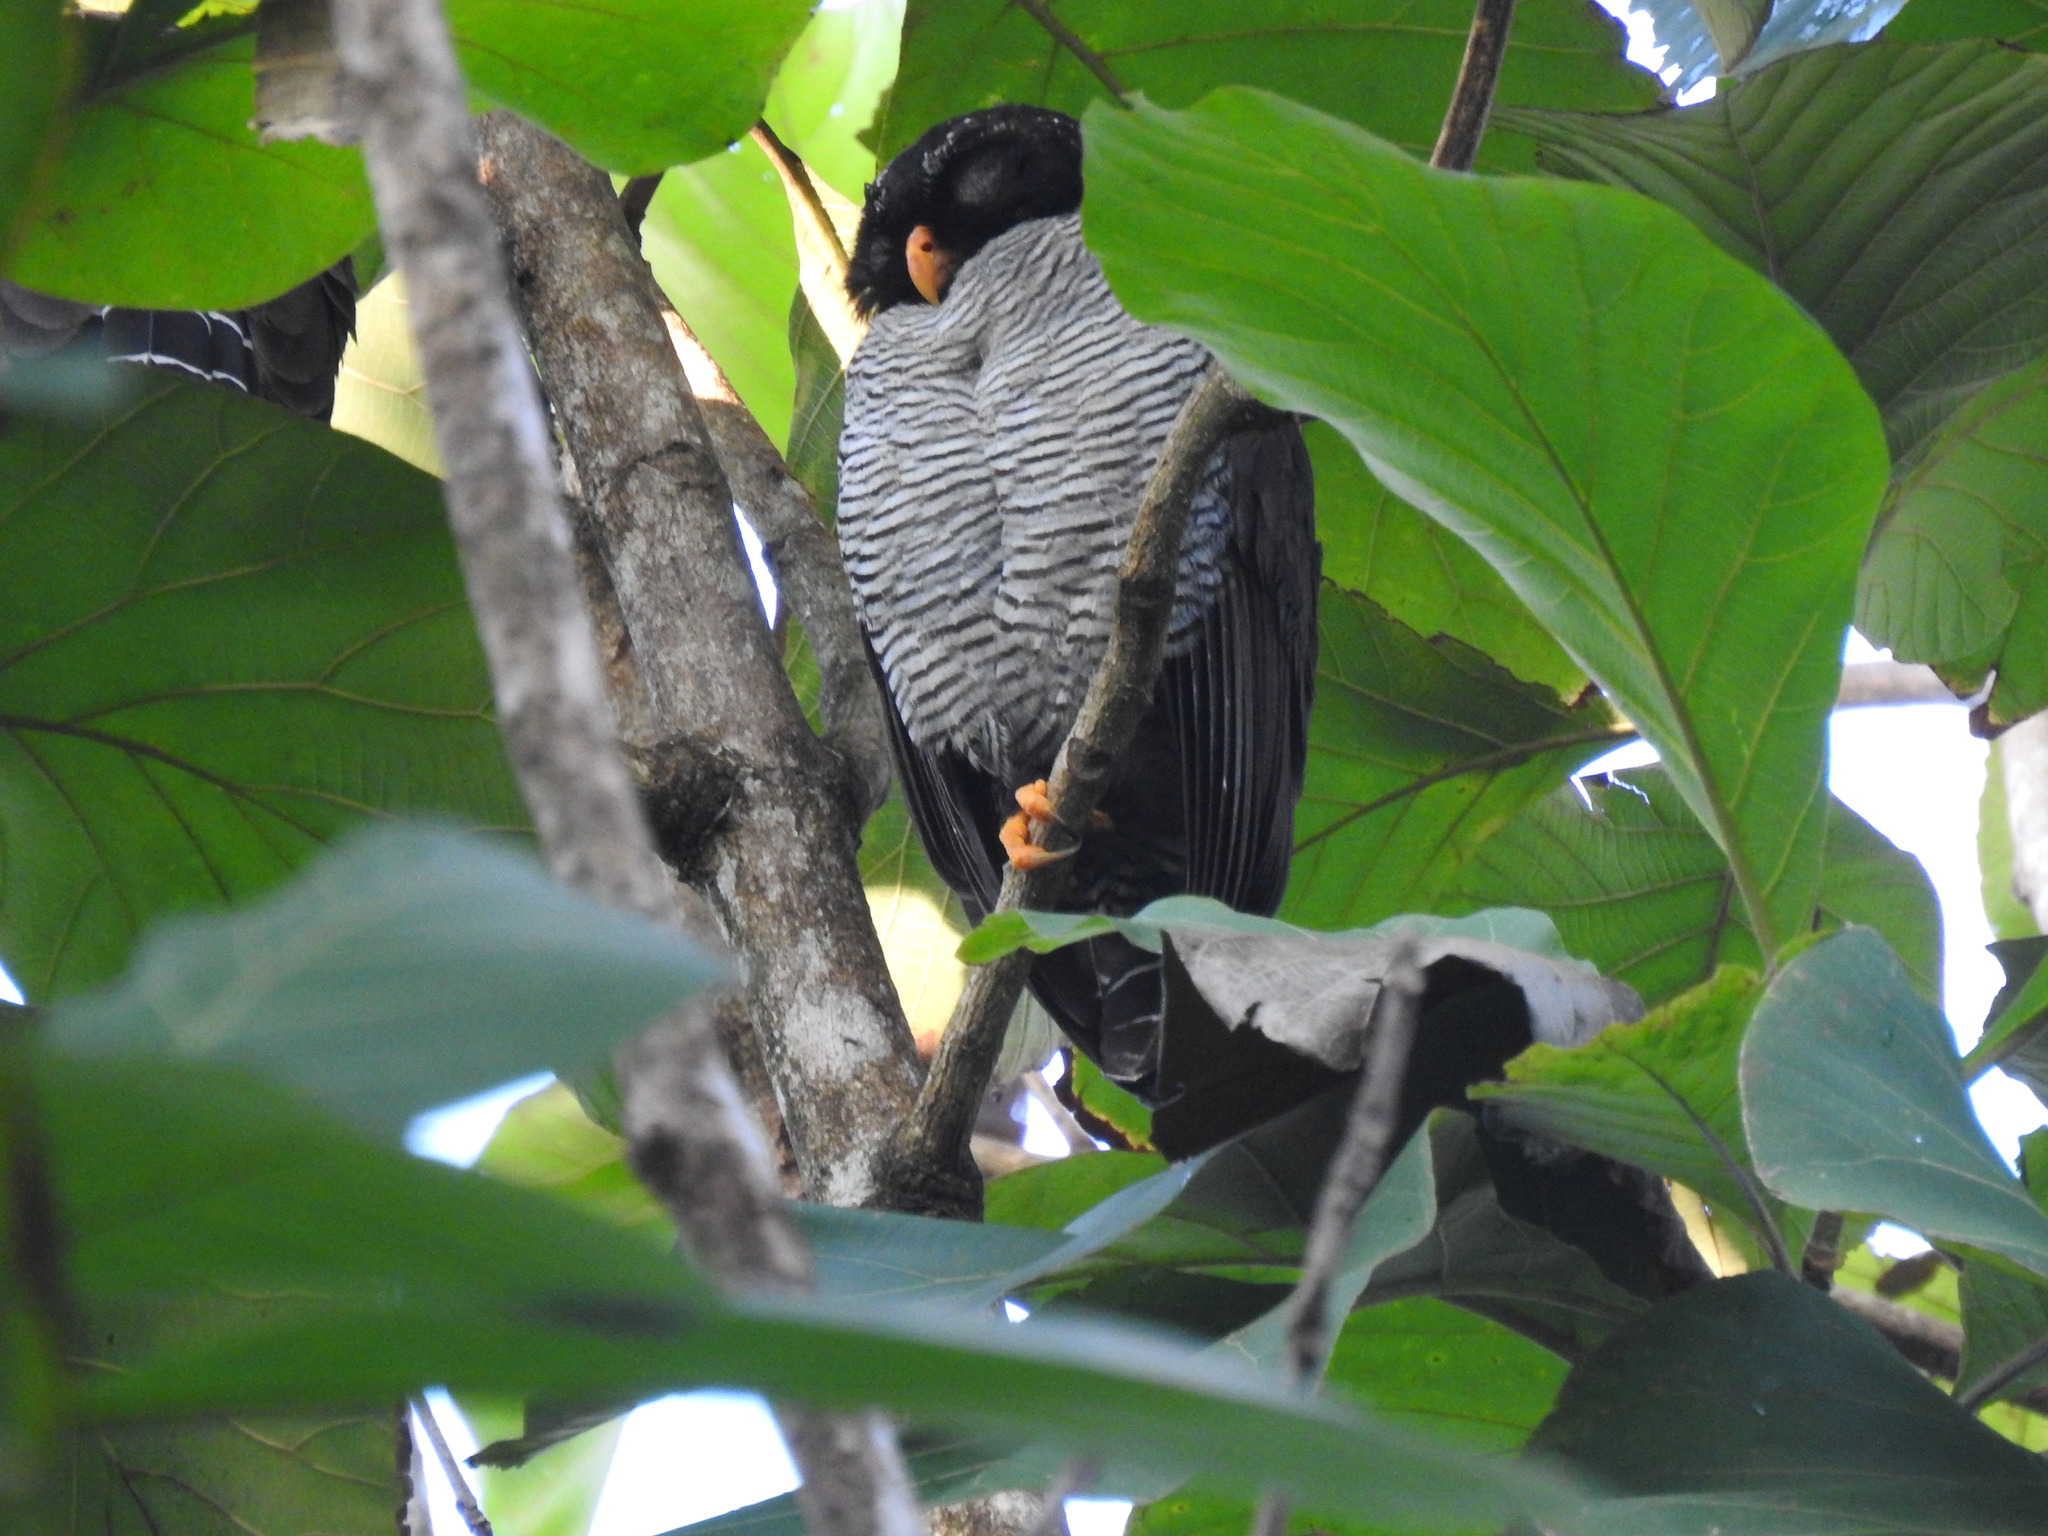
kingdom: Animalia
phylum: Chordata
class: Aves
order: Strigiformes
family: Strigidae
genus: Strix
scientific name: Strix nigrolineata
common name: Black-and-white owl
